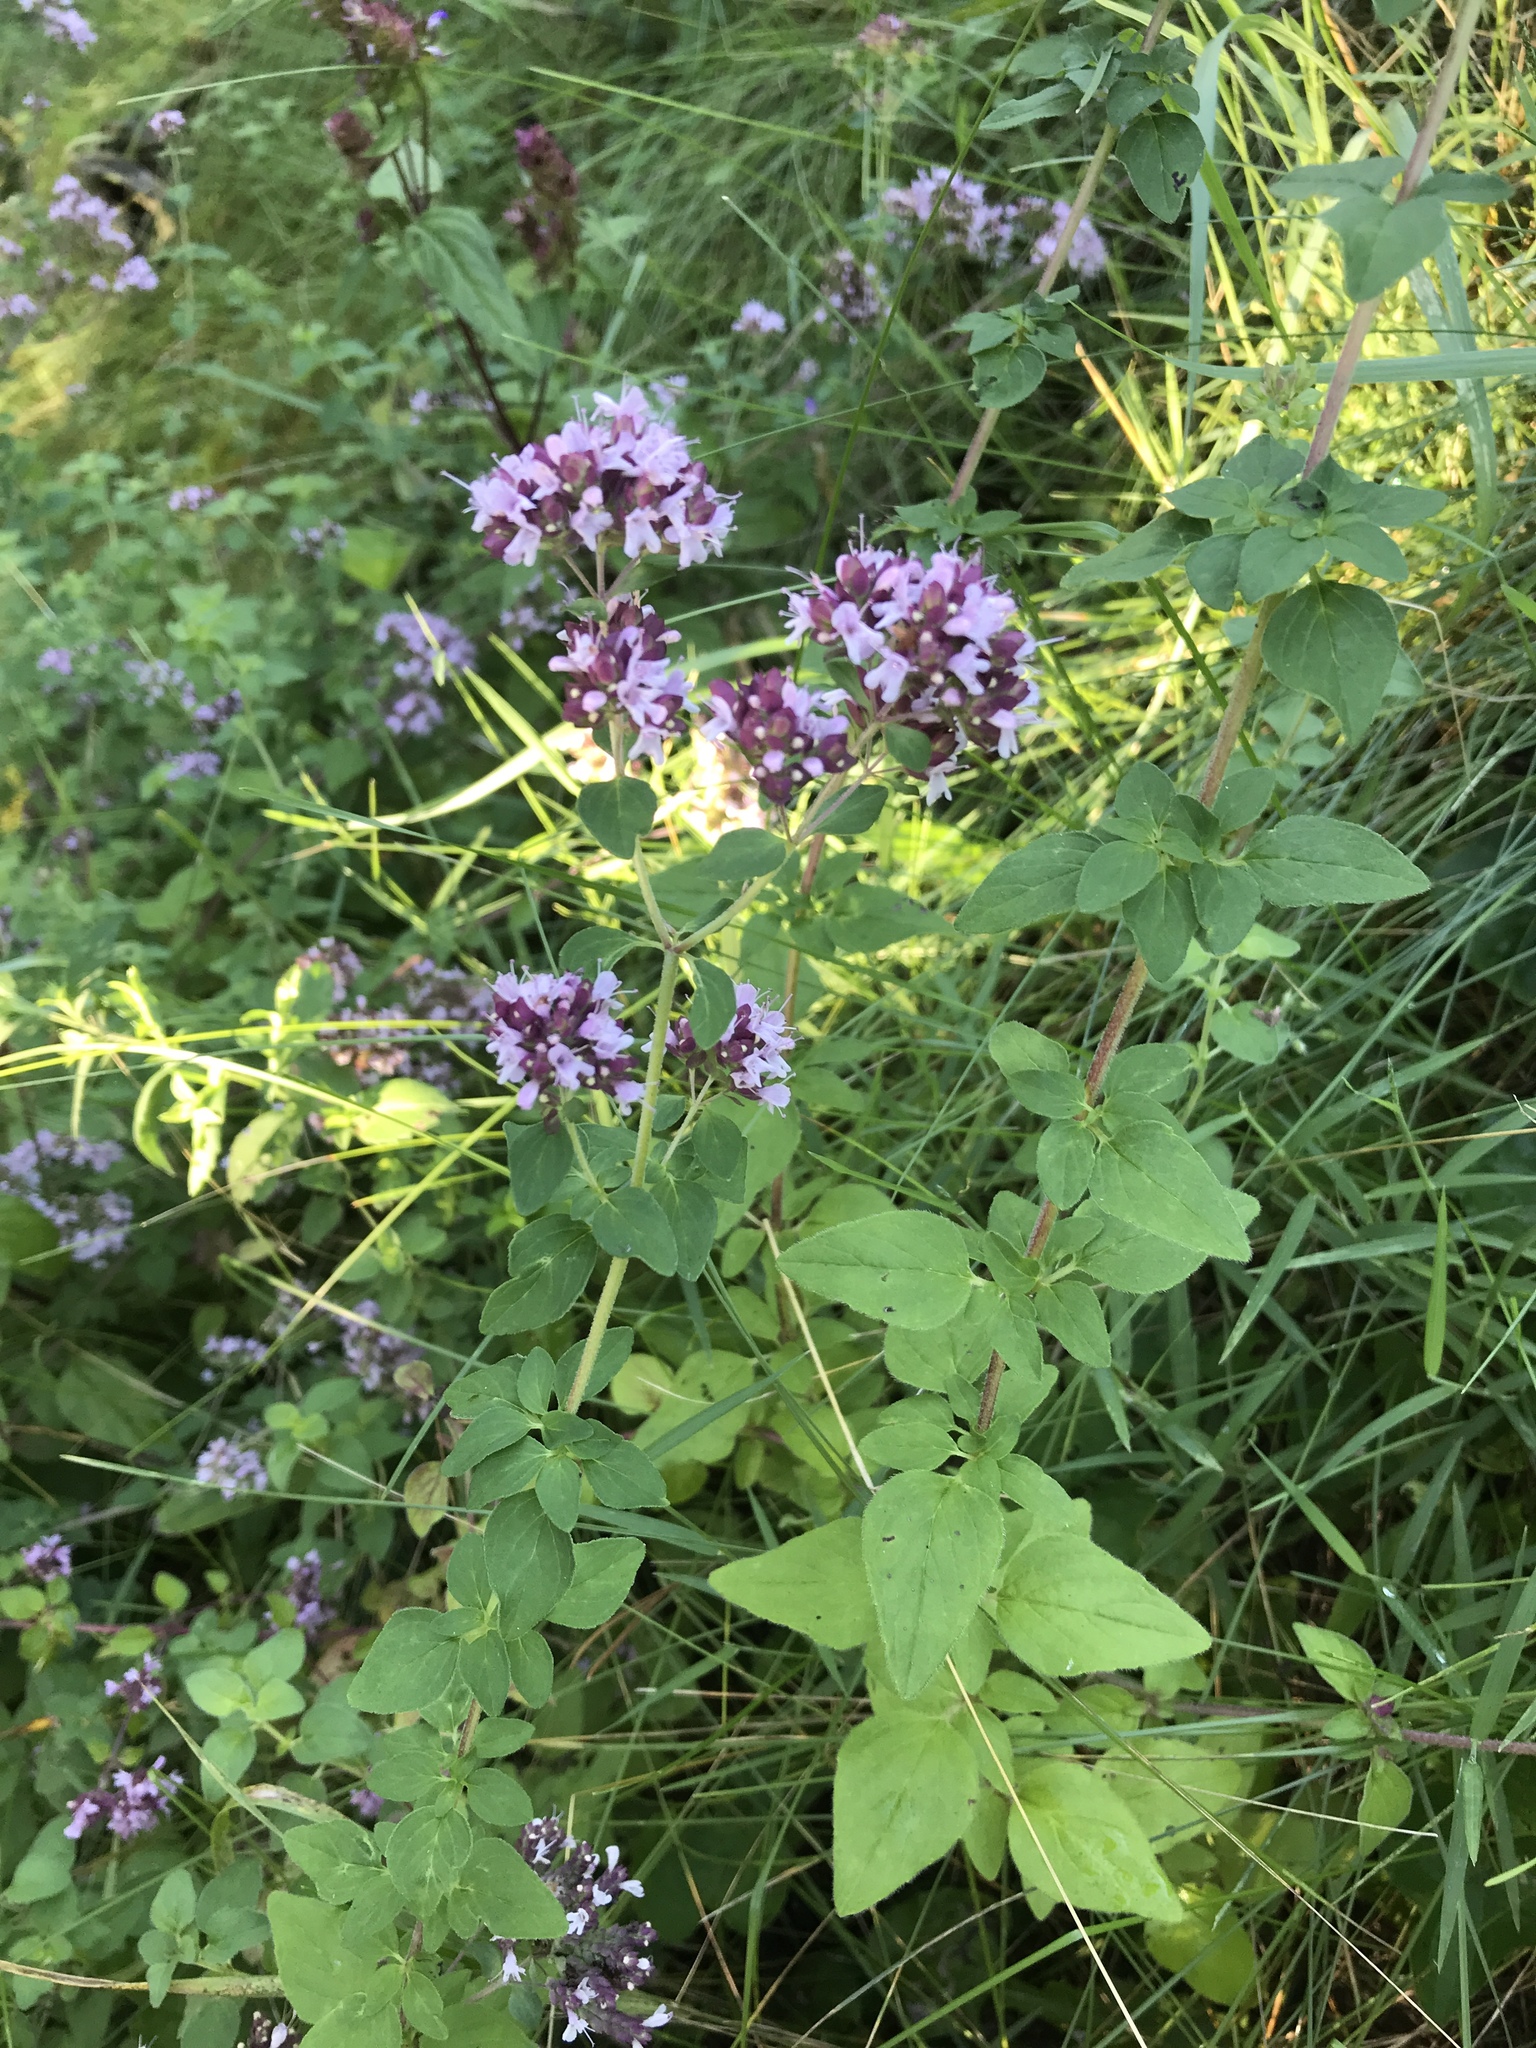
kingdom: Plantae
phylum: Tracheophyta
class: Magnoliopsida
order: Lamiales
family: Lamiaceae
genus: Origanum
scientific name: Origanum vulgare
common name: Wild marjoram
